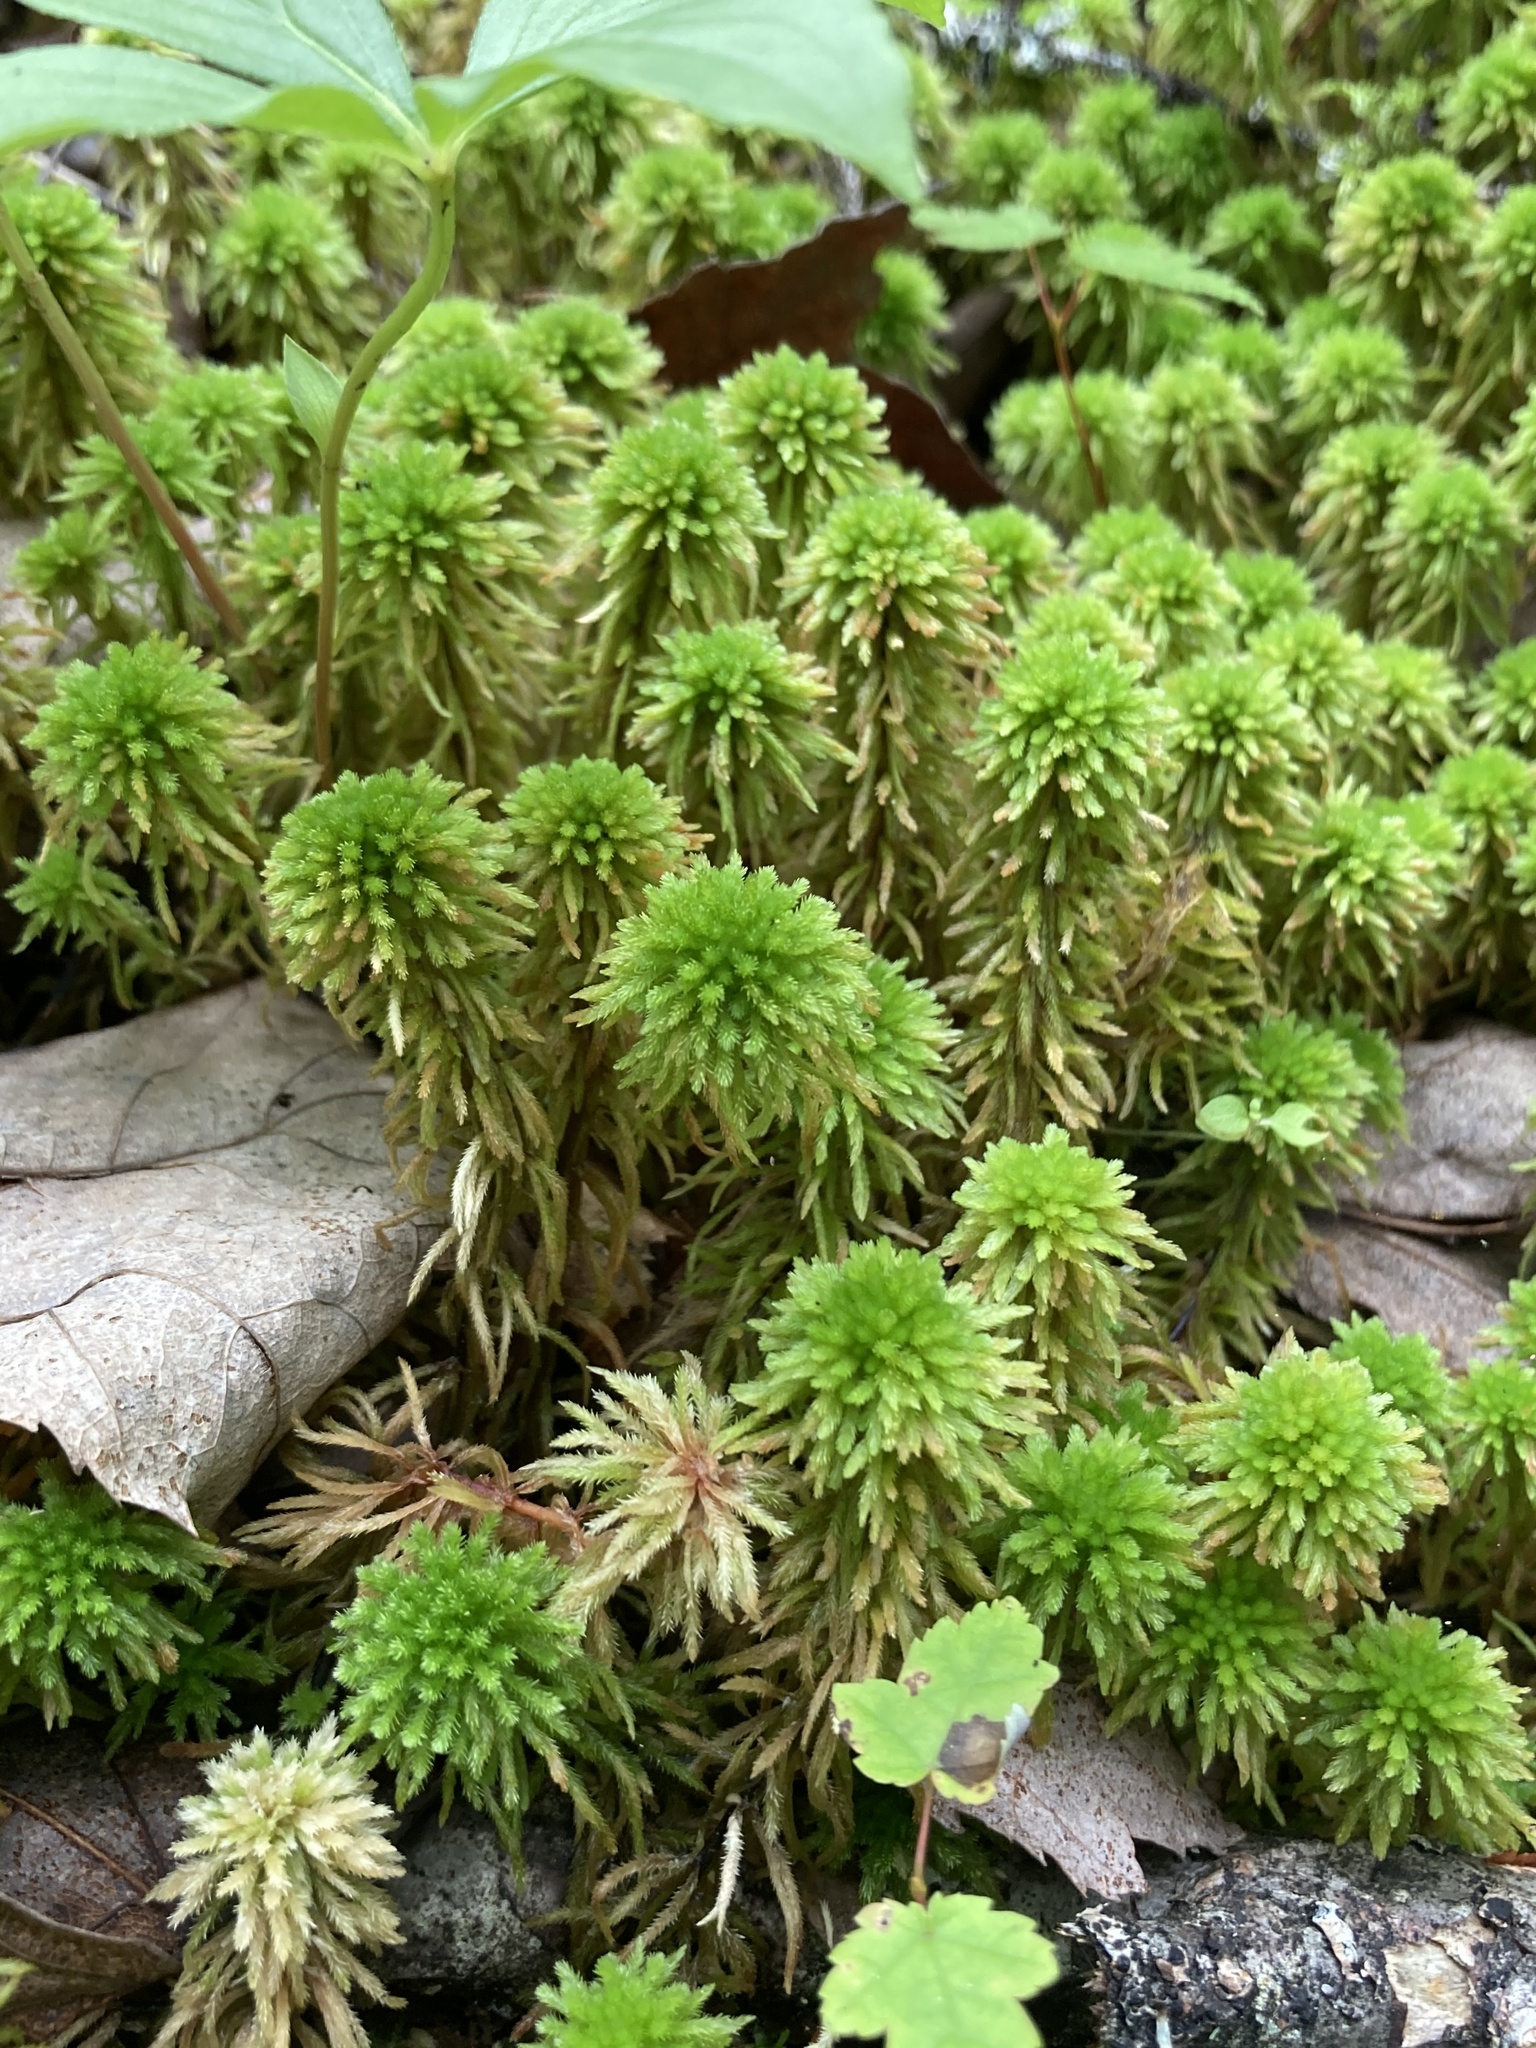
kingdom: Plantae
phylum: Bryophyta
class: Sphagnopsida
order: Sphagnales
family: Sphagnaceae
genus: Sphagnum
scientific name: Sphagnum wulfianum
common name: Wulf's peat moss
